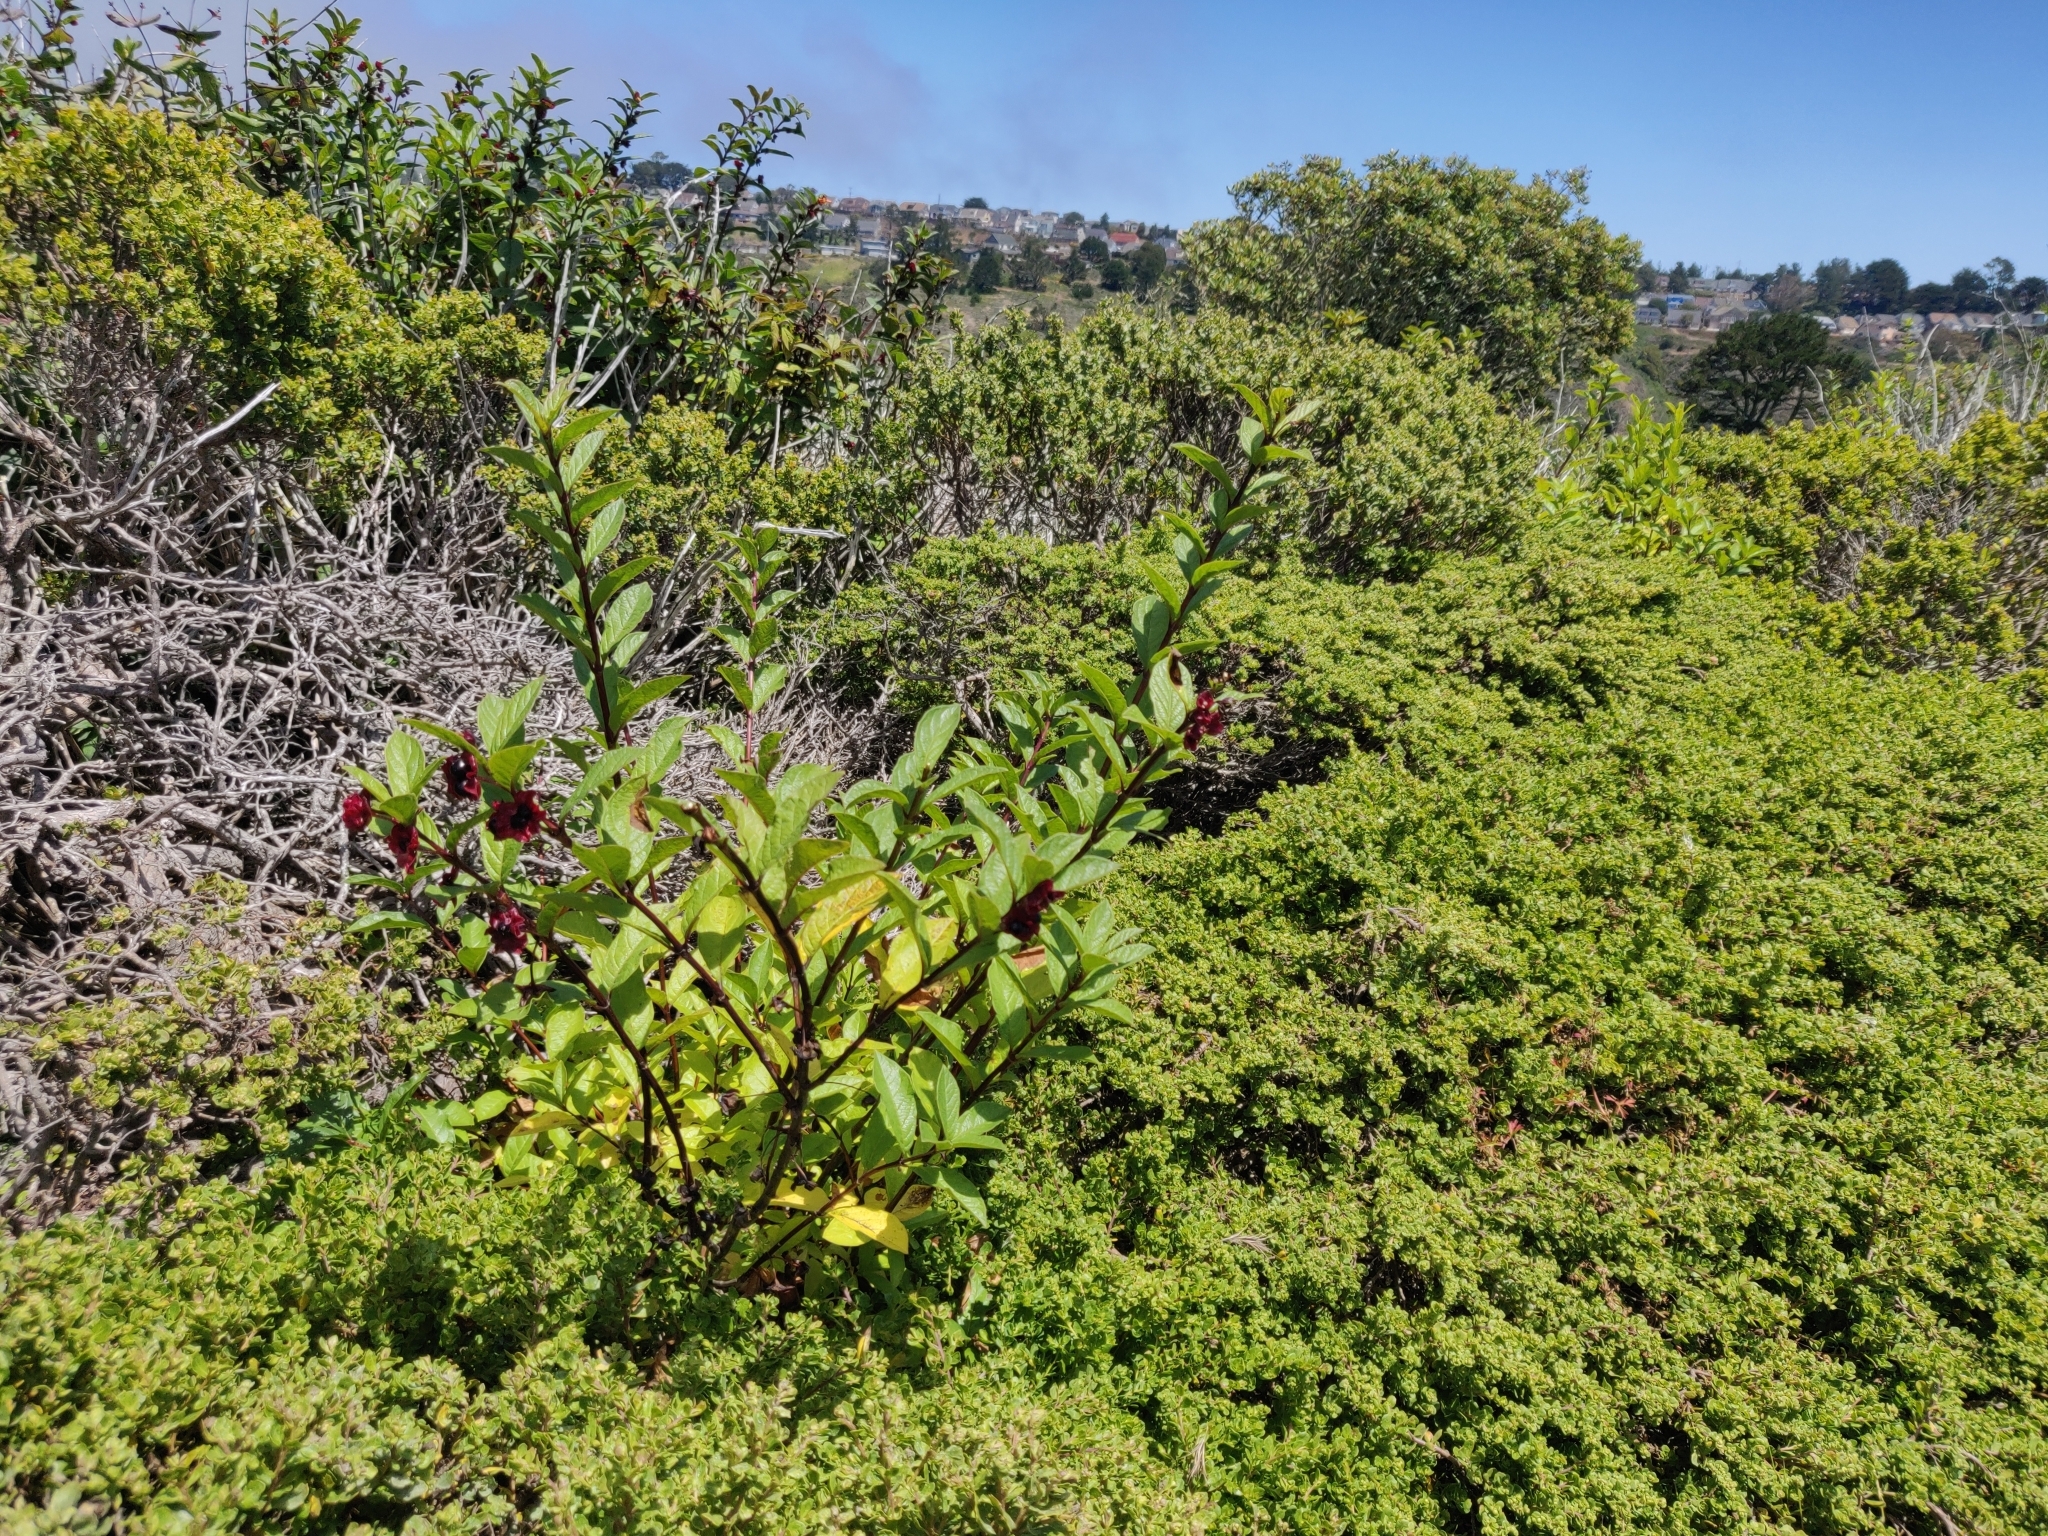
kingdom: Plantae
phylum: Tracheophyta
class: Magnoliopsida
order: Dipsacales
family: Caprifoliaceae
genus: Lonicera
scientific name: Lonicera involucrata
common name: Californian honeysuckle
